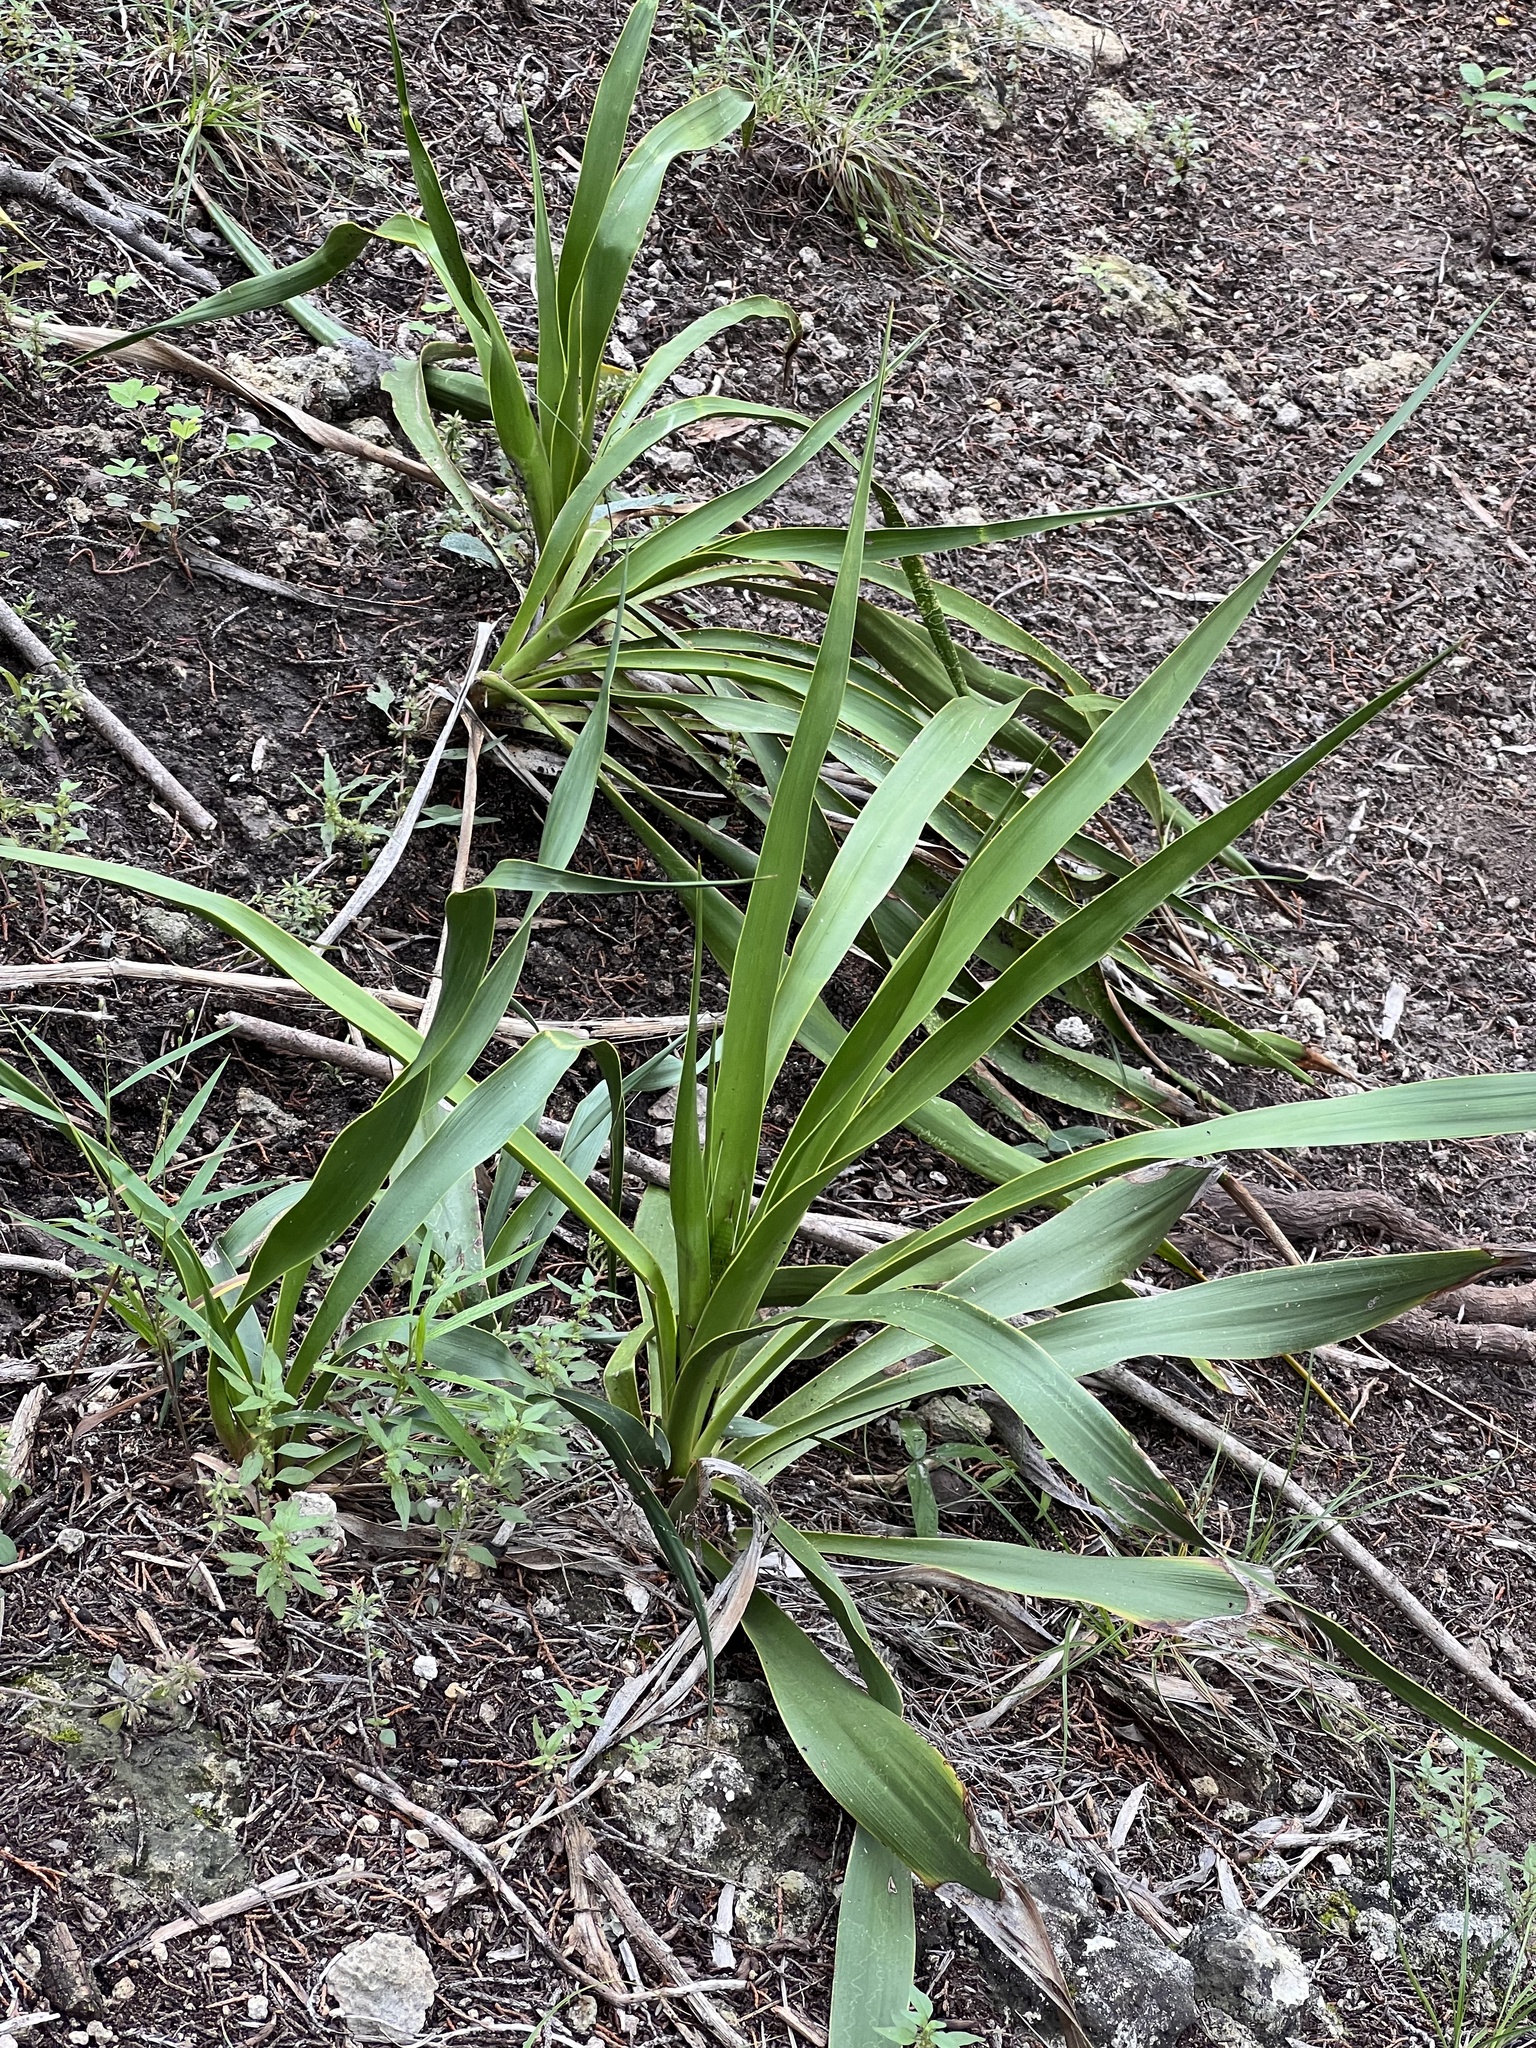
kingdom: Plantae
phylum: Tracheophyta
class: Liliopsida
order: Asparagales
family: Asparagaceae
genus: Yucca
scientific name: Yucca rupicola
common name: Twisted-leaf spanish-dagger
